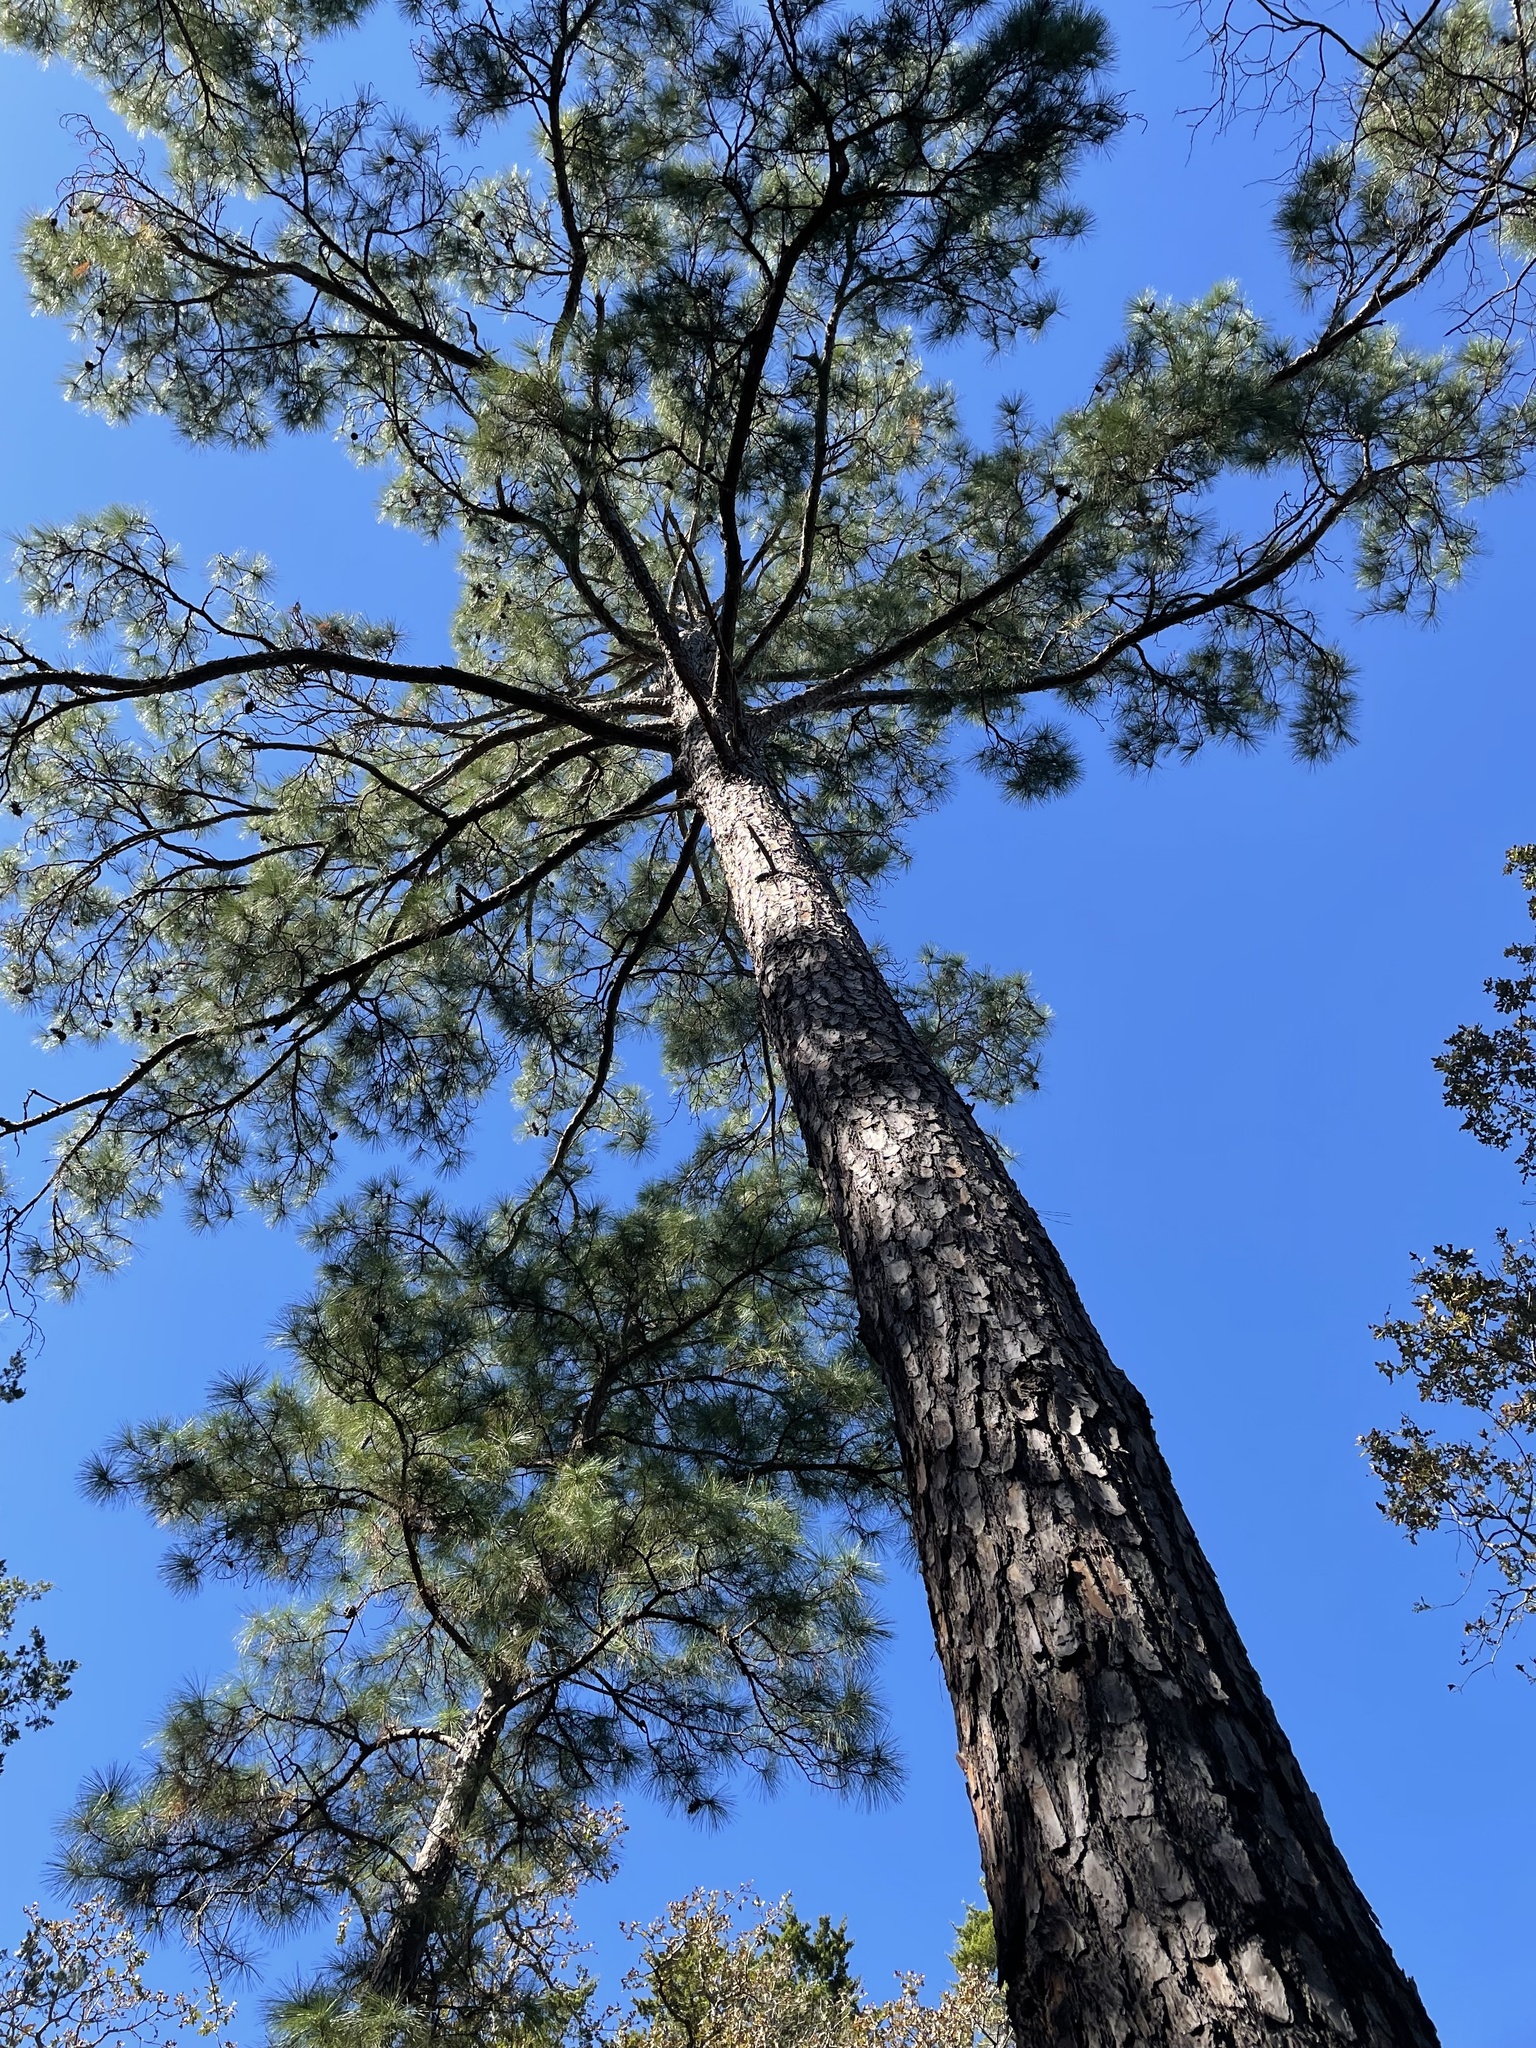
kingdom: Plantae
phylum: Tracheophyta
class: Pinopsida
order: Pinales
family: Pinaceae
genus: Pinus
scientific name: Pinus taeda
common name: Loblolly pine
